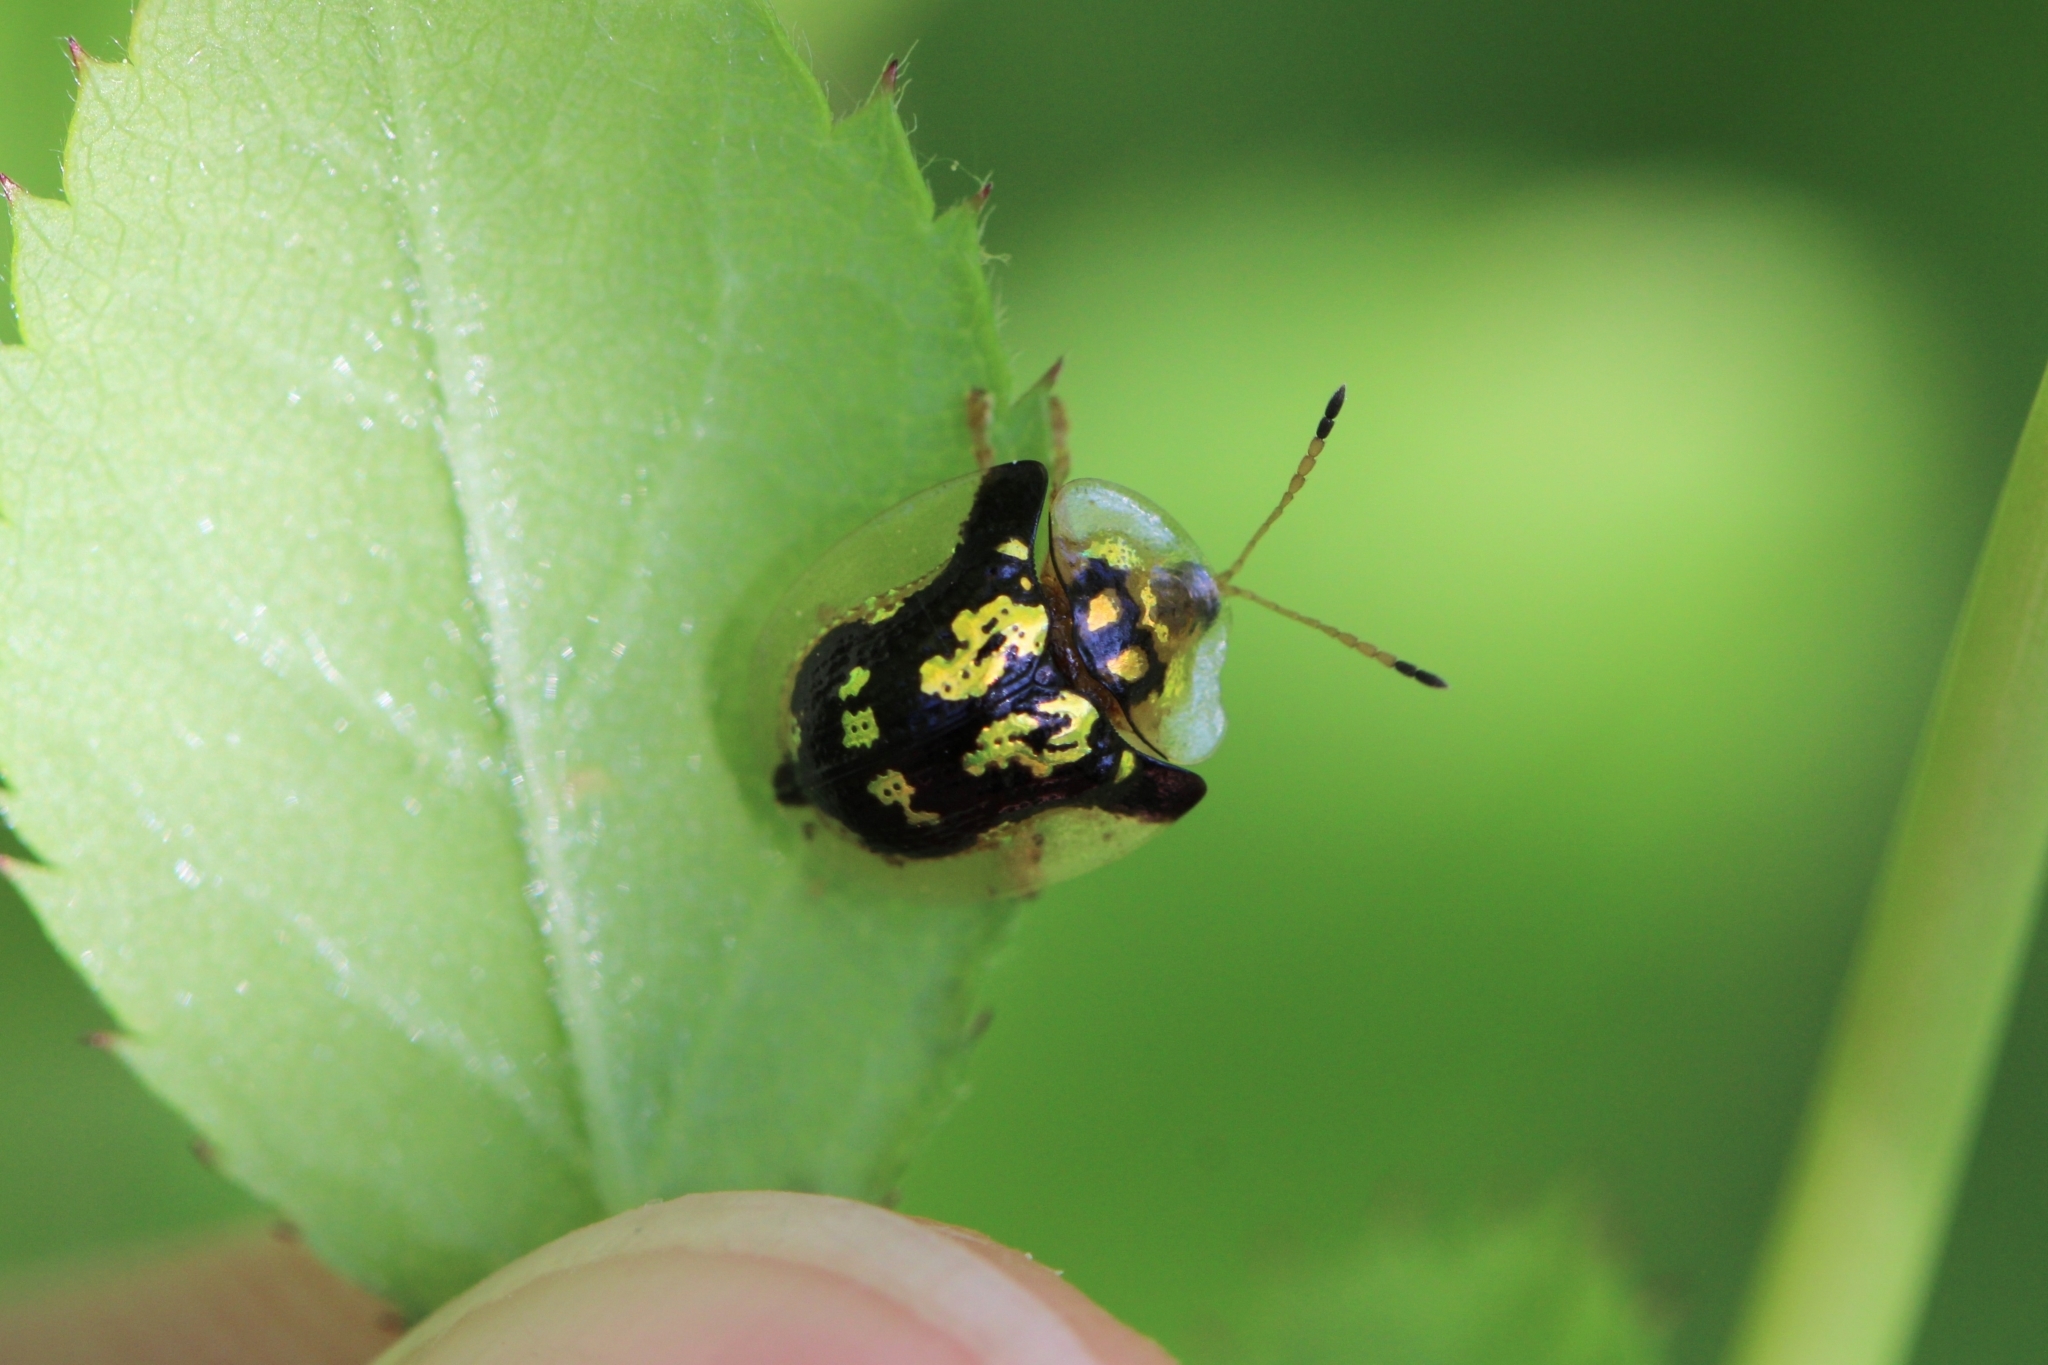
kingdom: Animalia
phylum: Arthropoda
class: Insecta
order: Coleoptera
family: Chrysomelidae
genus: Deloyala
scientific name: Deloyala guttata
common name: Mottled tortoise beetle
